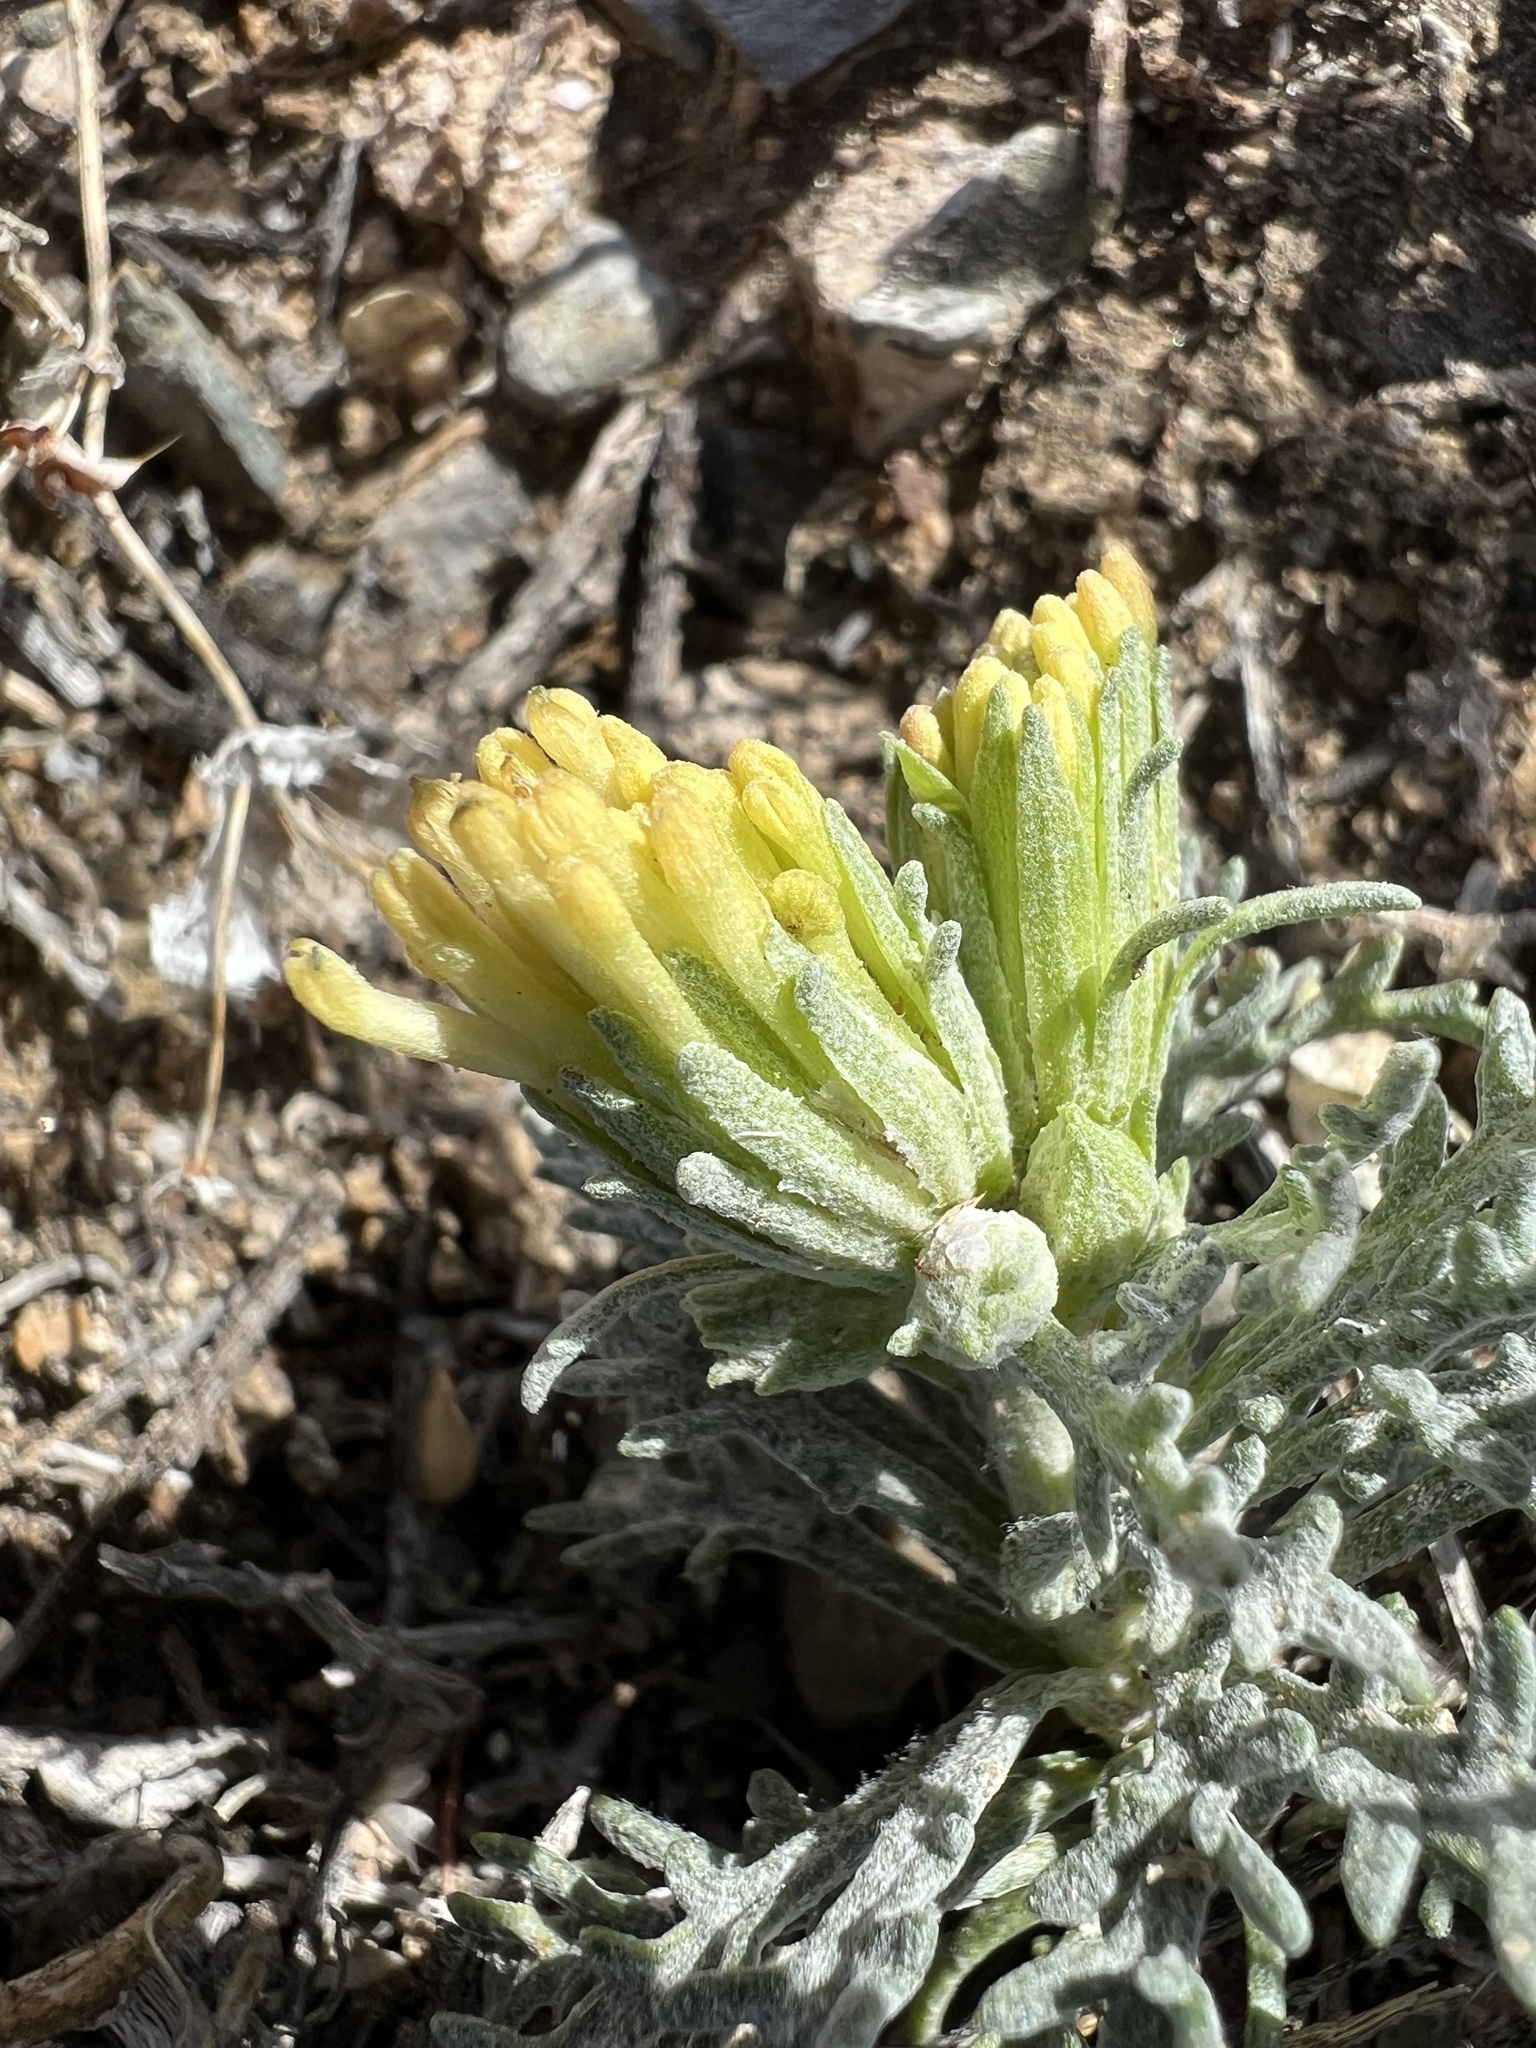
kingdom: Plantae
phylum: Tracheophyta
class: Magnoliopsida
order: Asterales
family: Asteraceae
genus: Chaenactis
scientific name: Chaenactis macrantha
